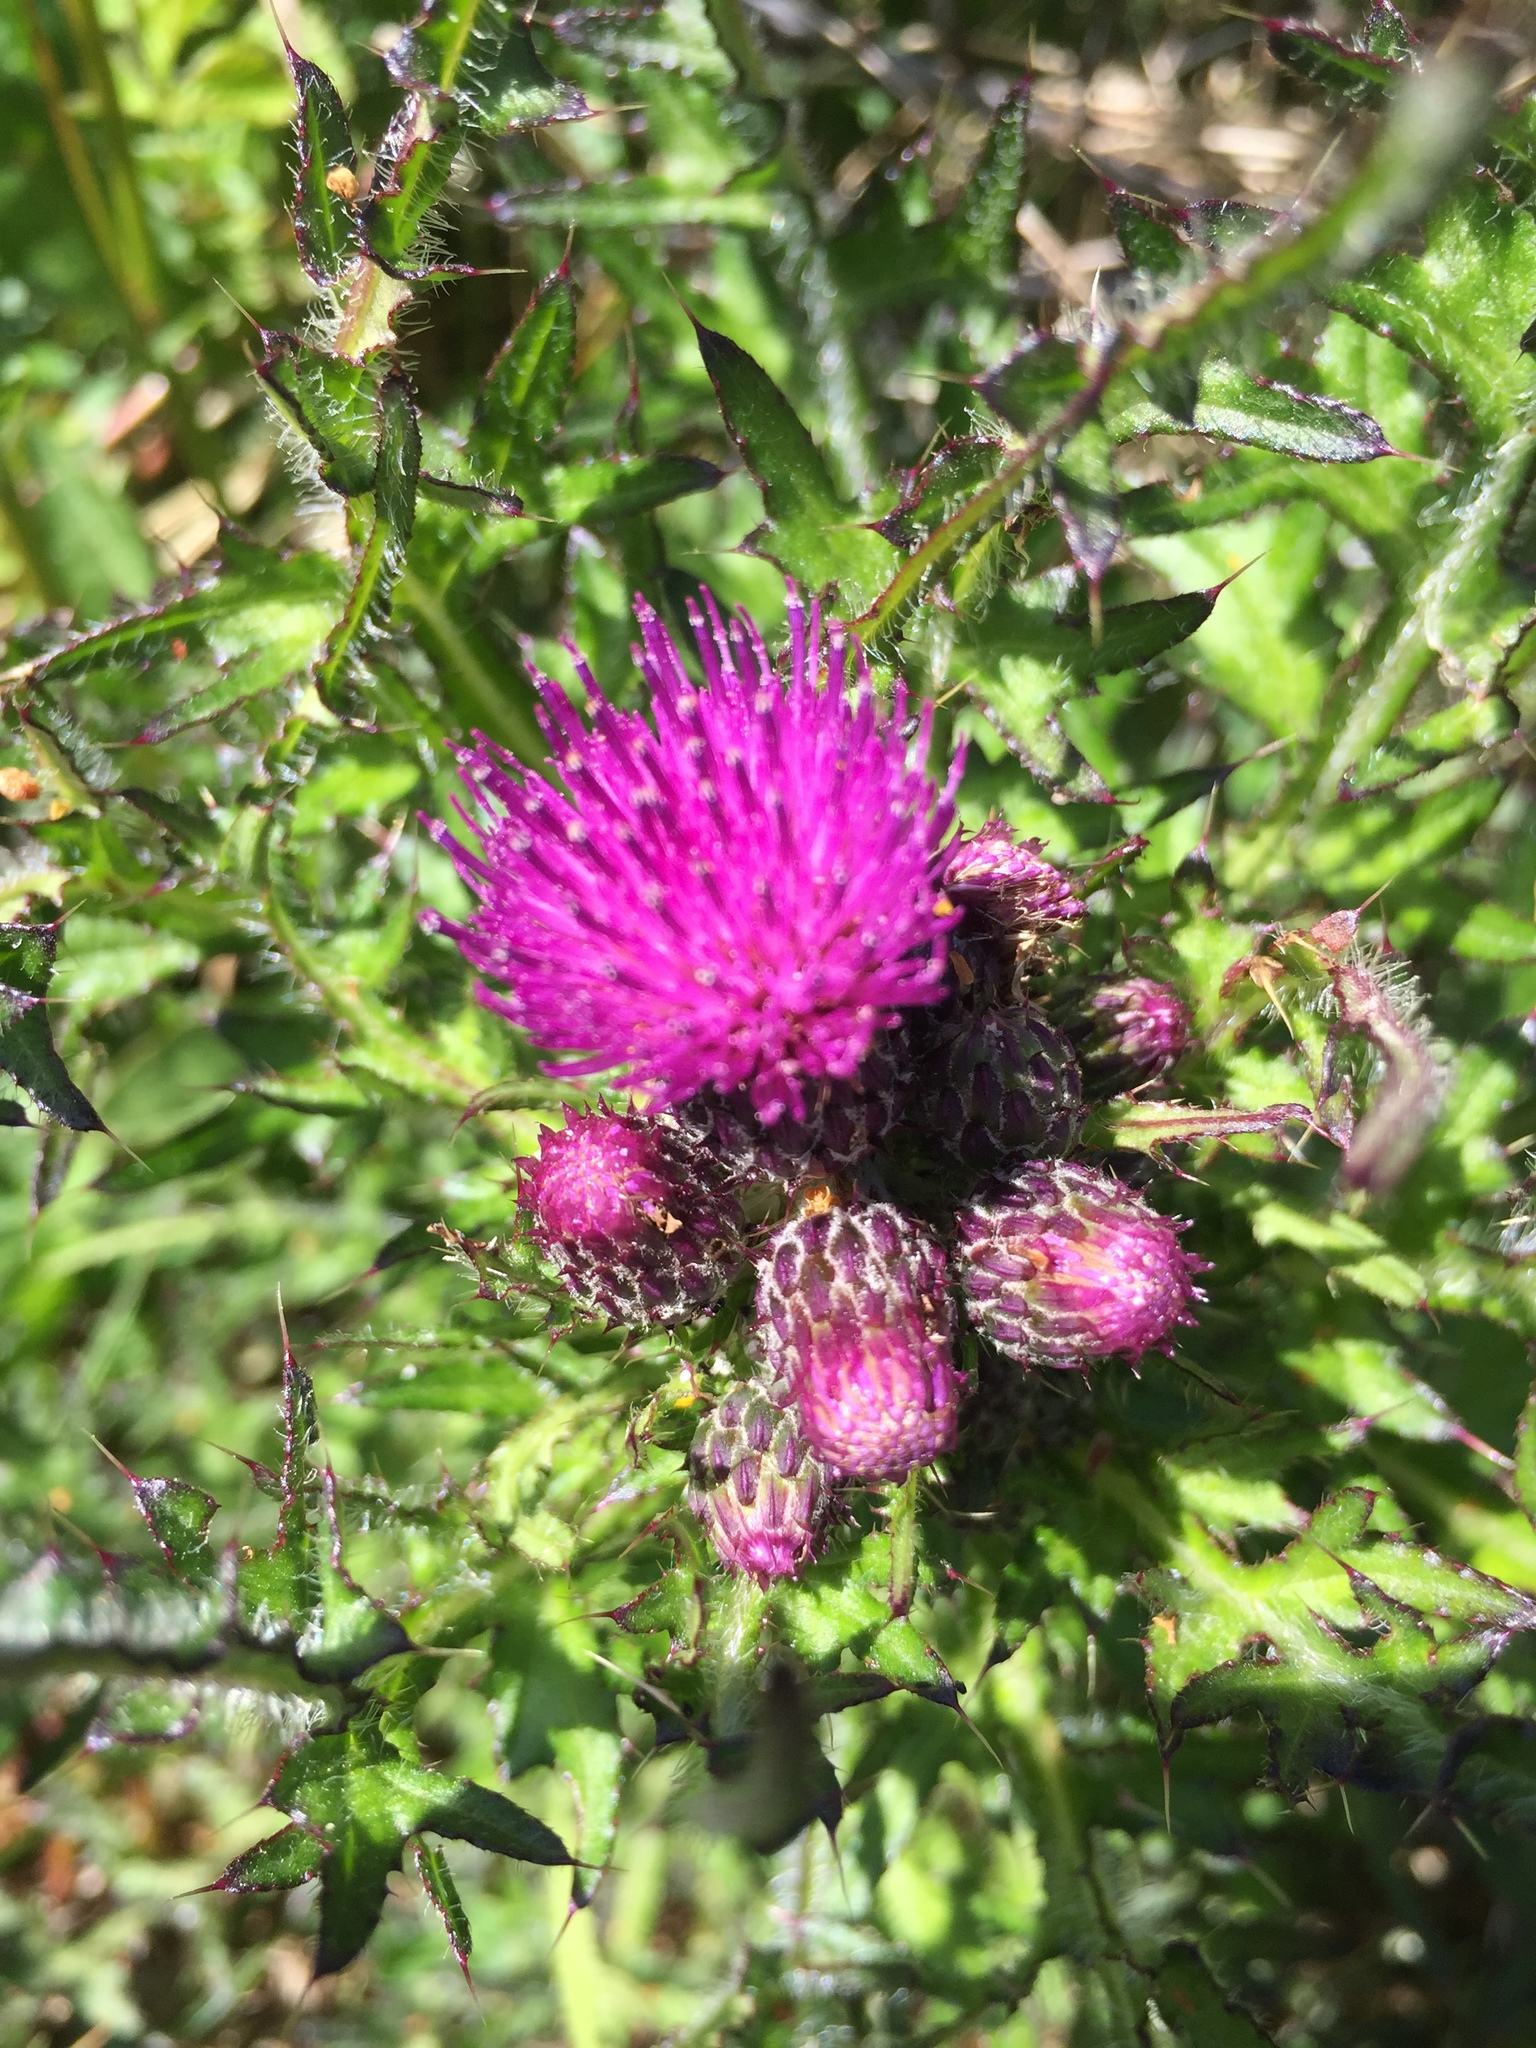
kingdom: Plantae
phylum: Tracheophyta
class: Magnoliopsida
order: Asterales
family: Asteraceae
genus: Cirsium
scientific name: Cirsium palustre
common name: Marsh thistle
